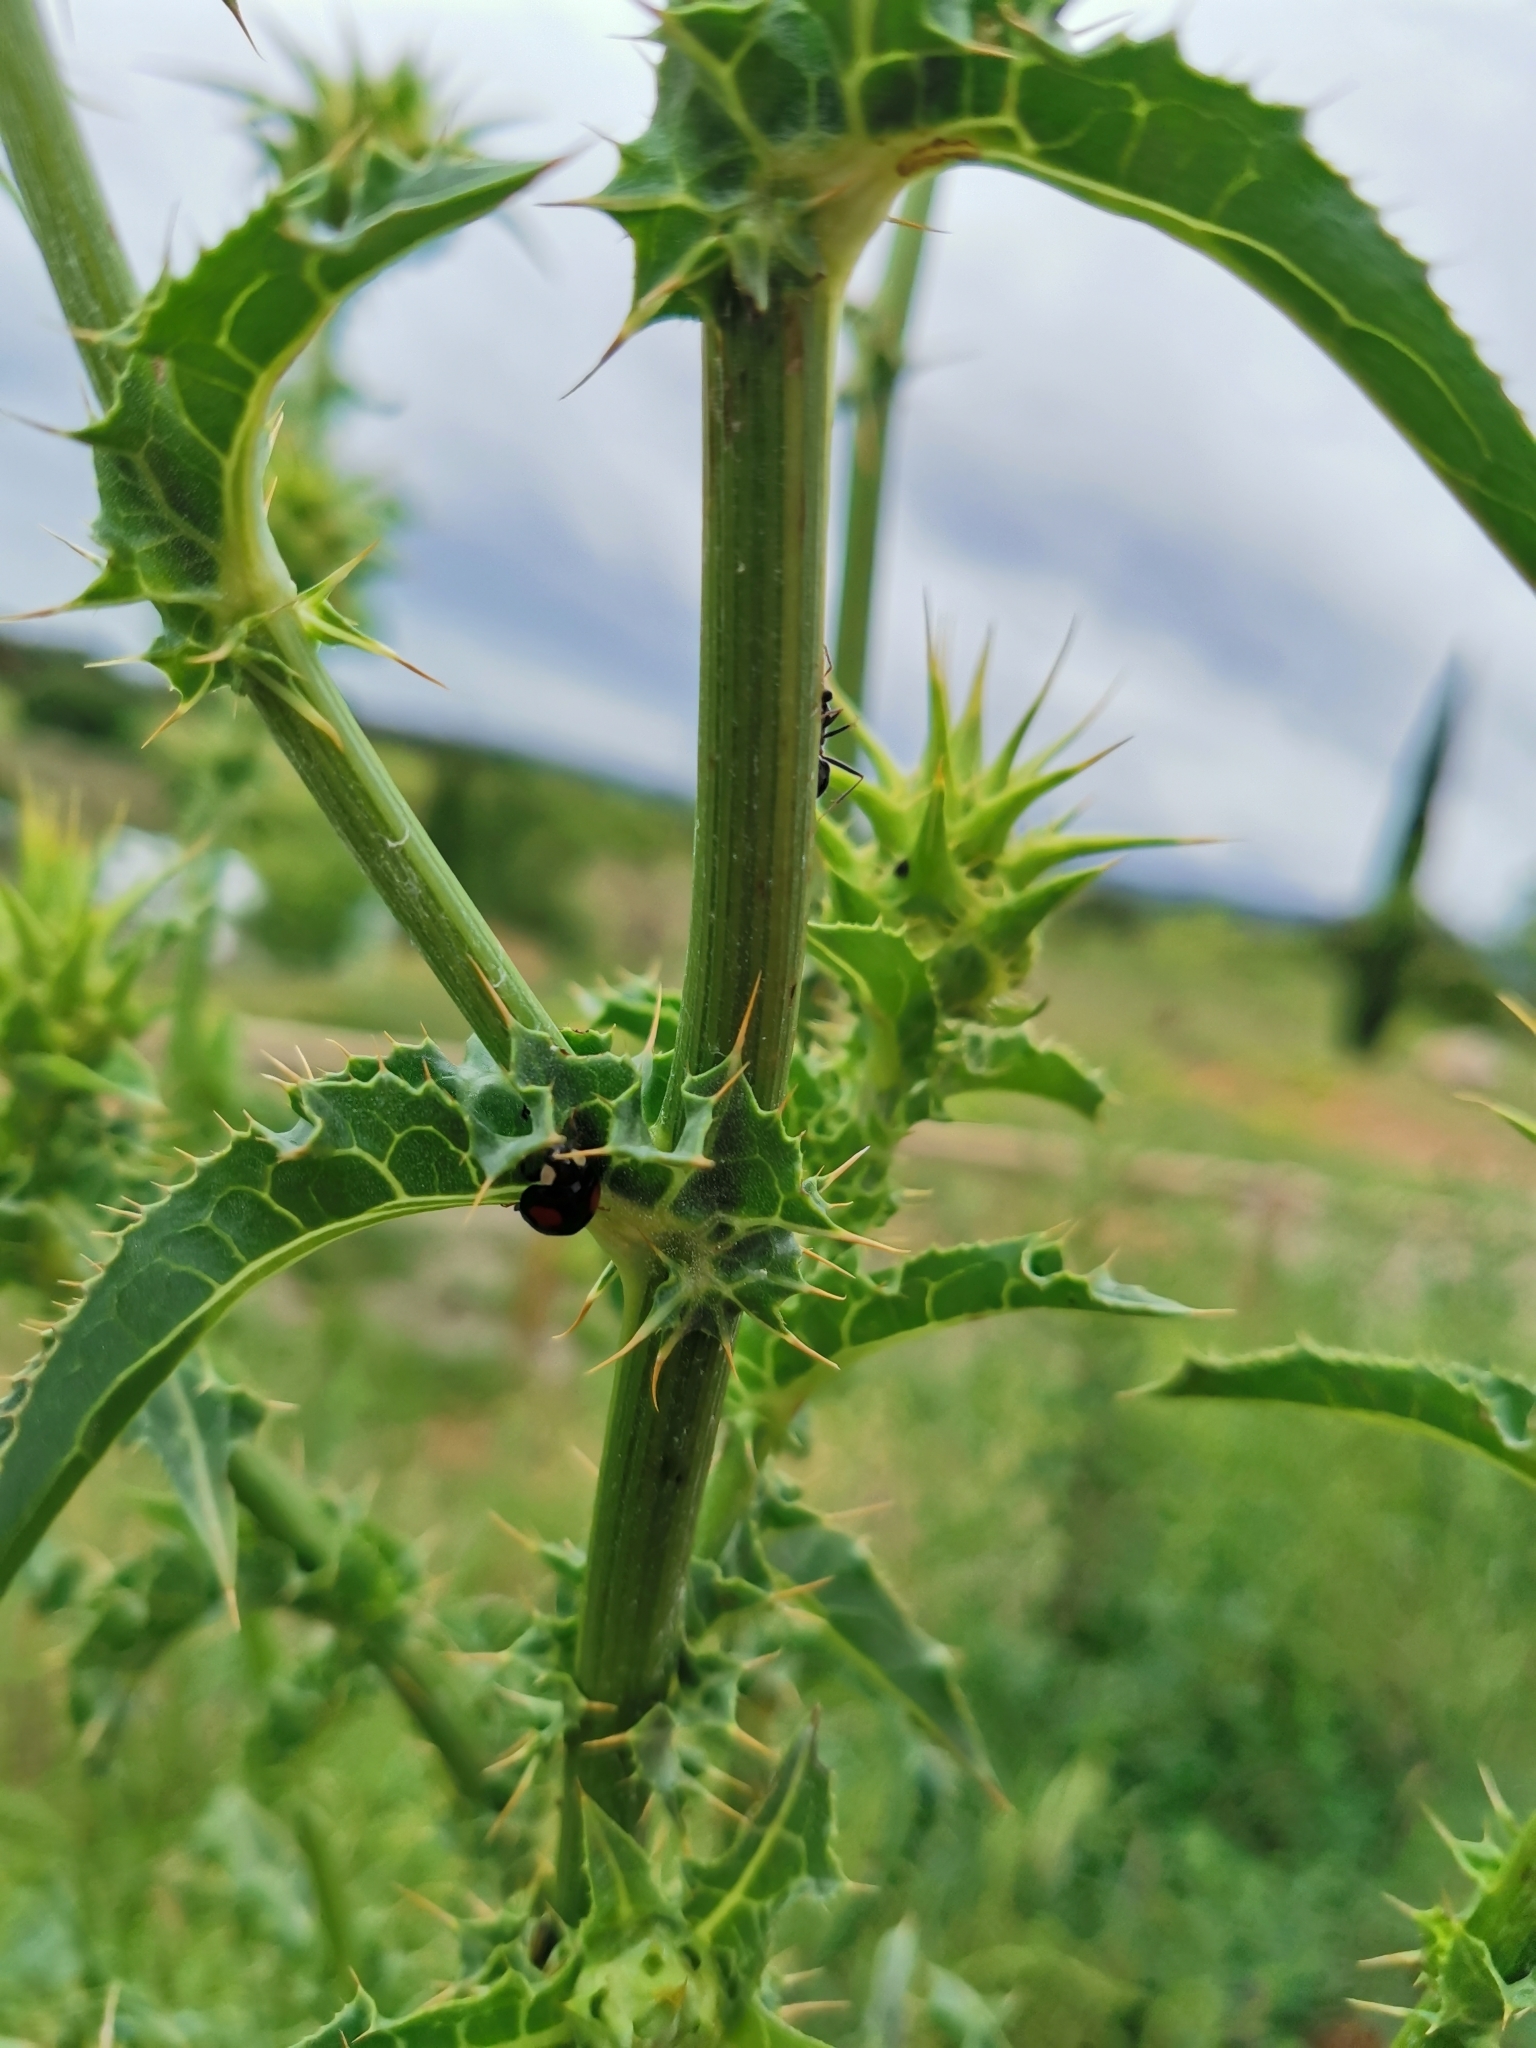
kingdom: Plantae
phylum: Tracheophyta
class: Magnoliopsida
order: Asterales
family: Asteraceae
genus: Silybum
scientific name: Silybum marianum
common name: Milk thistle
